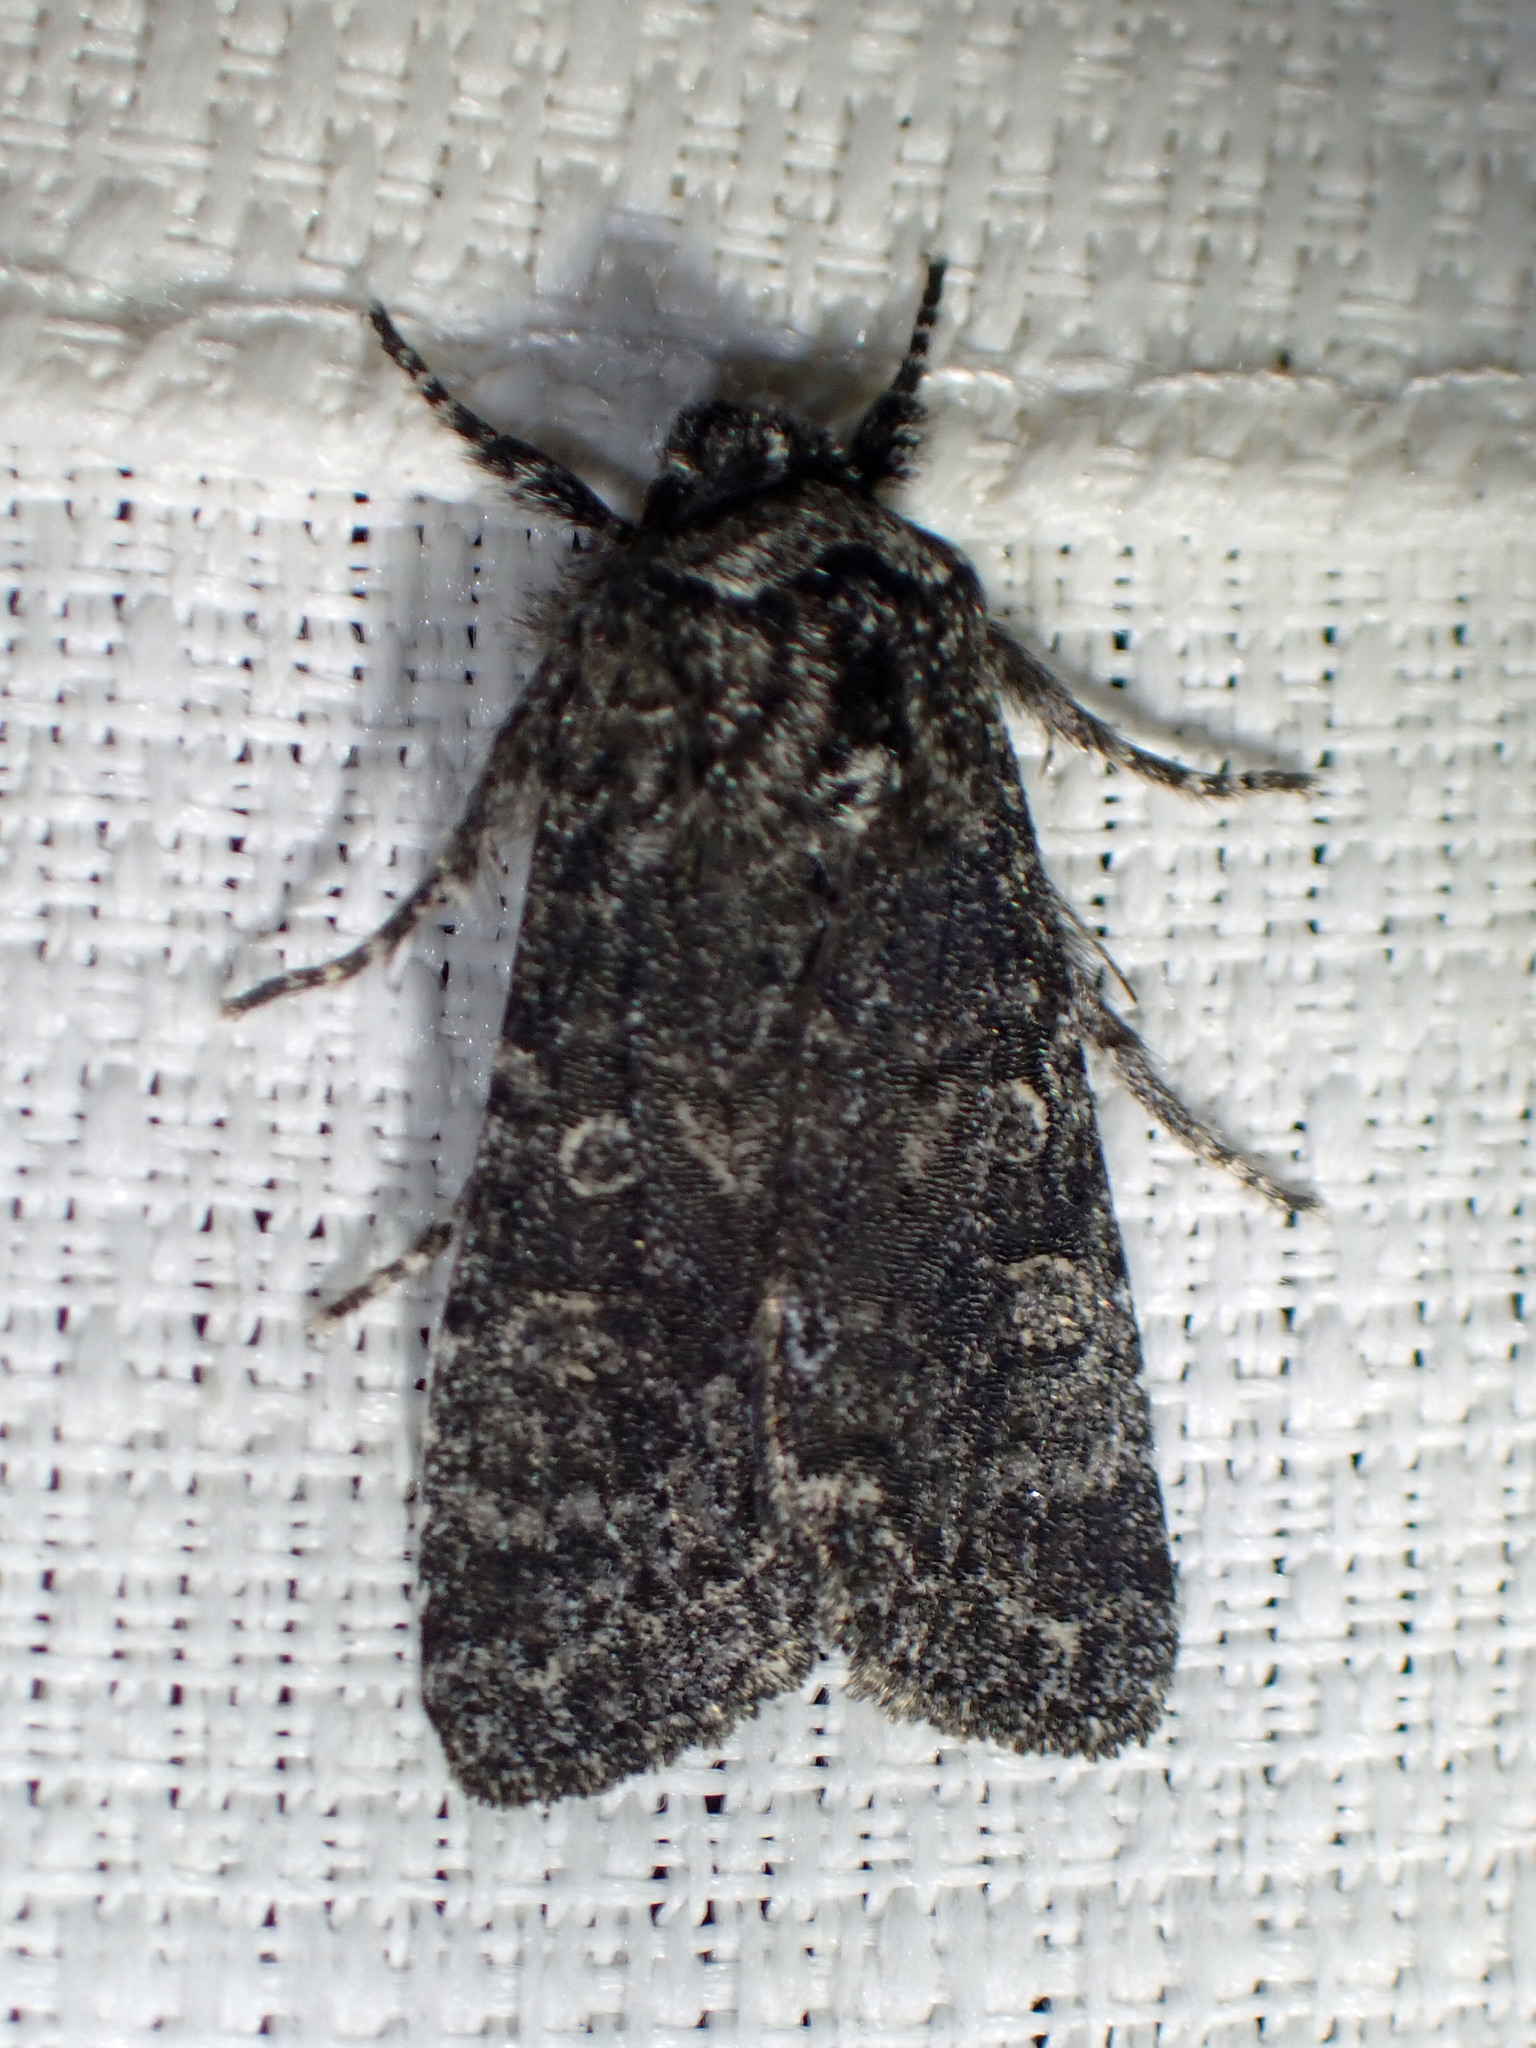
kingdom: Animalia
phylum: Arthropoda
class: Insecta
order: Lepidoptera
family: Noctuidae
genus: Egira
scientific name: Egira dolosa
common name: Lined black aspen cat.
